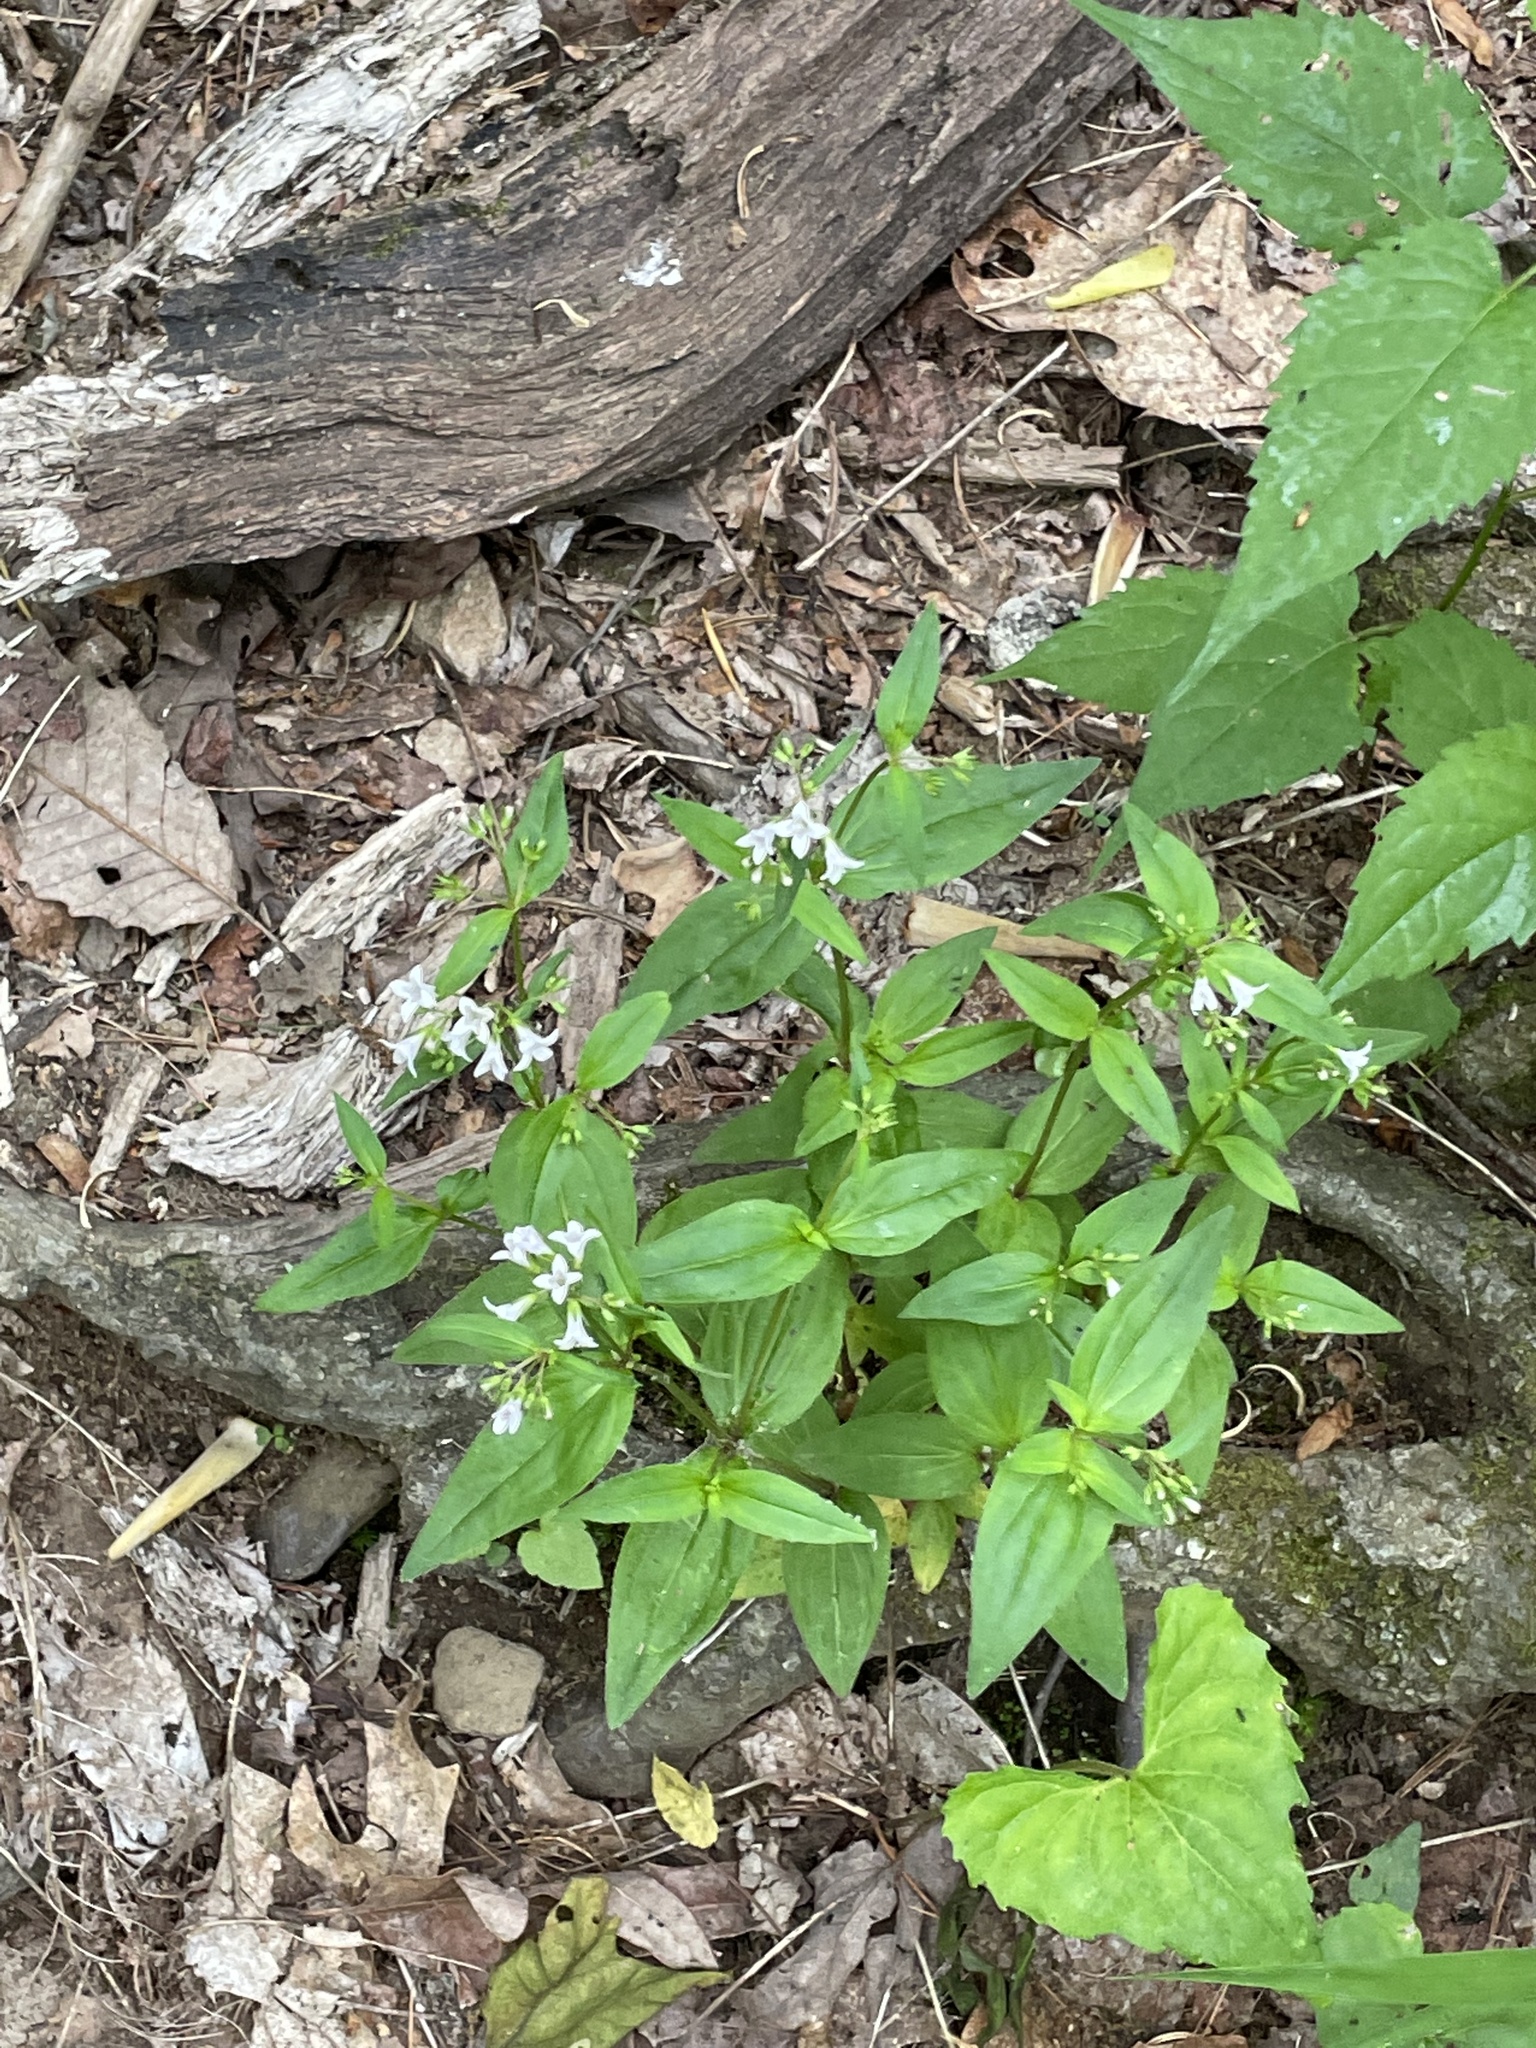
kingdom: Plantae
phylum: Tracheophyta
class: Magnoliopsida
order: Gentianales
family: Rubiaceae
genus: Houstonia
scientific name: Houstonia purpurea
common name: Summer bluet
